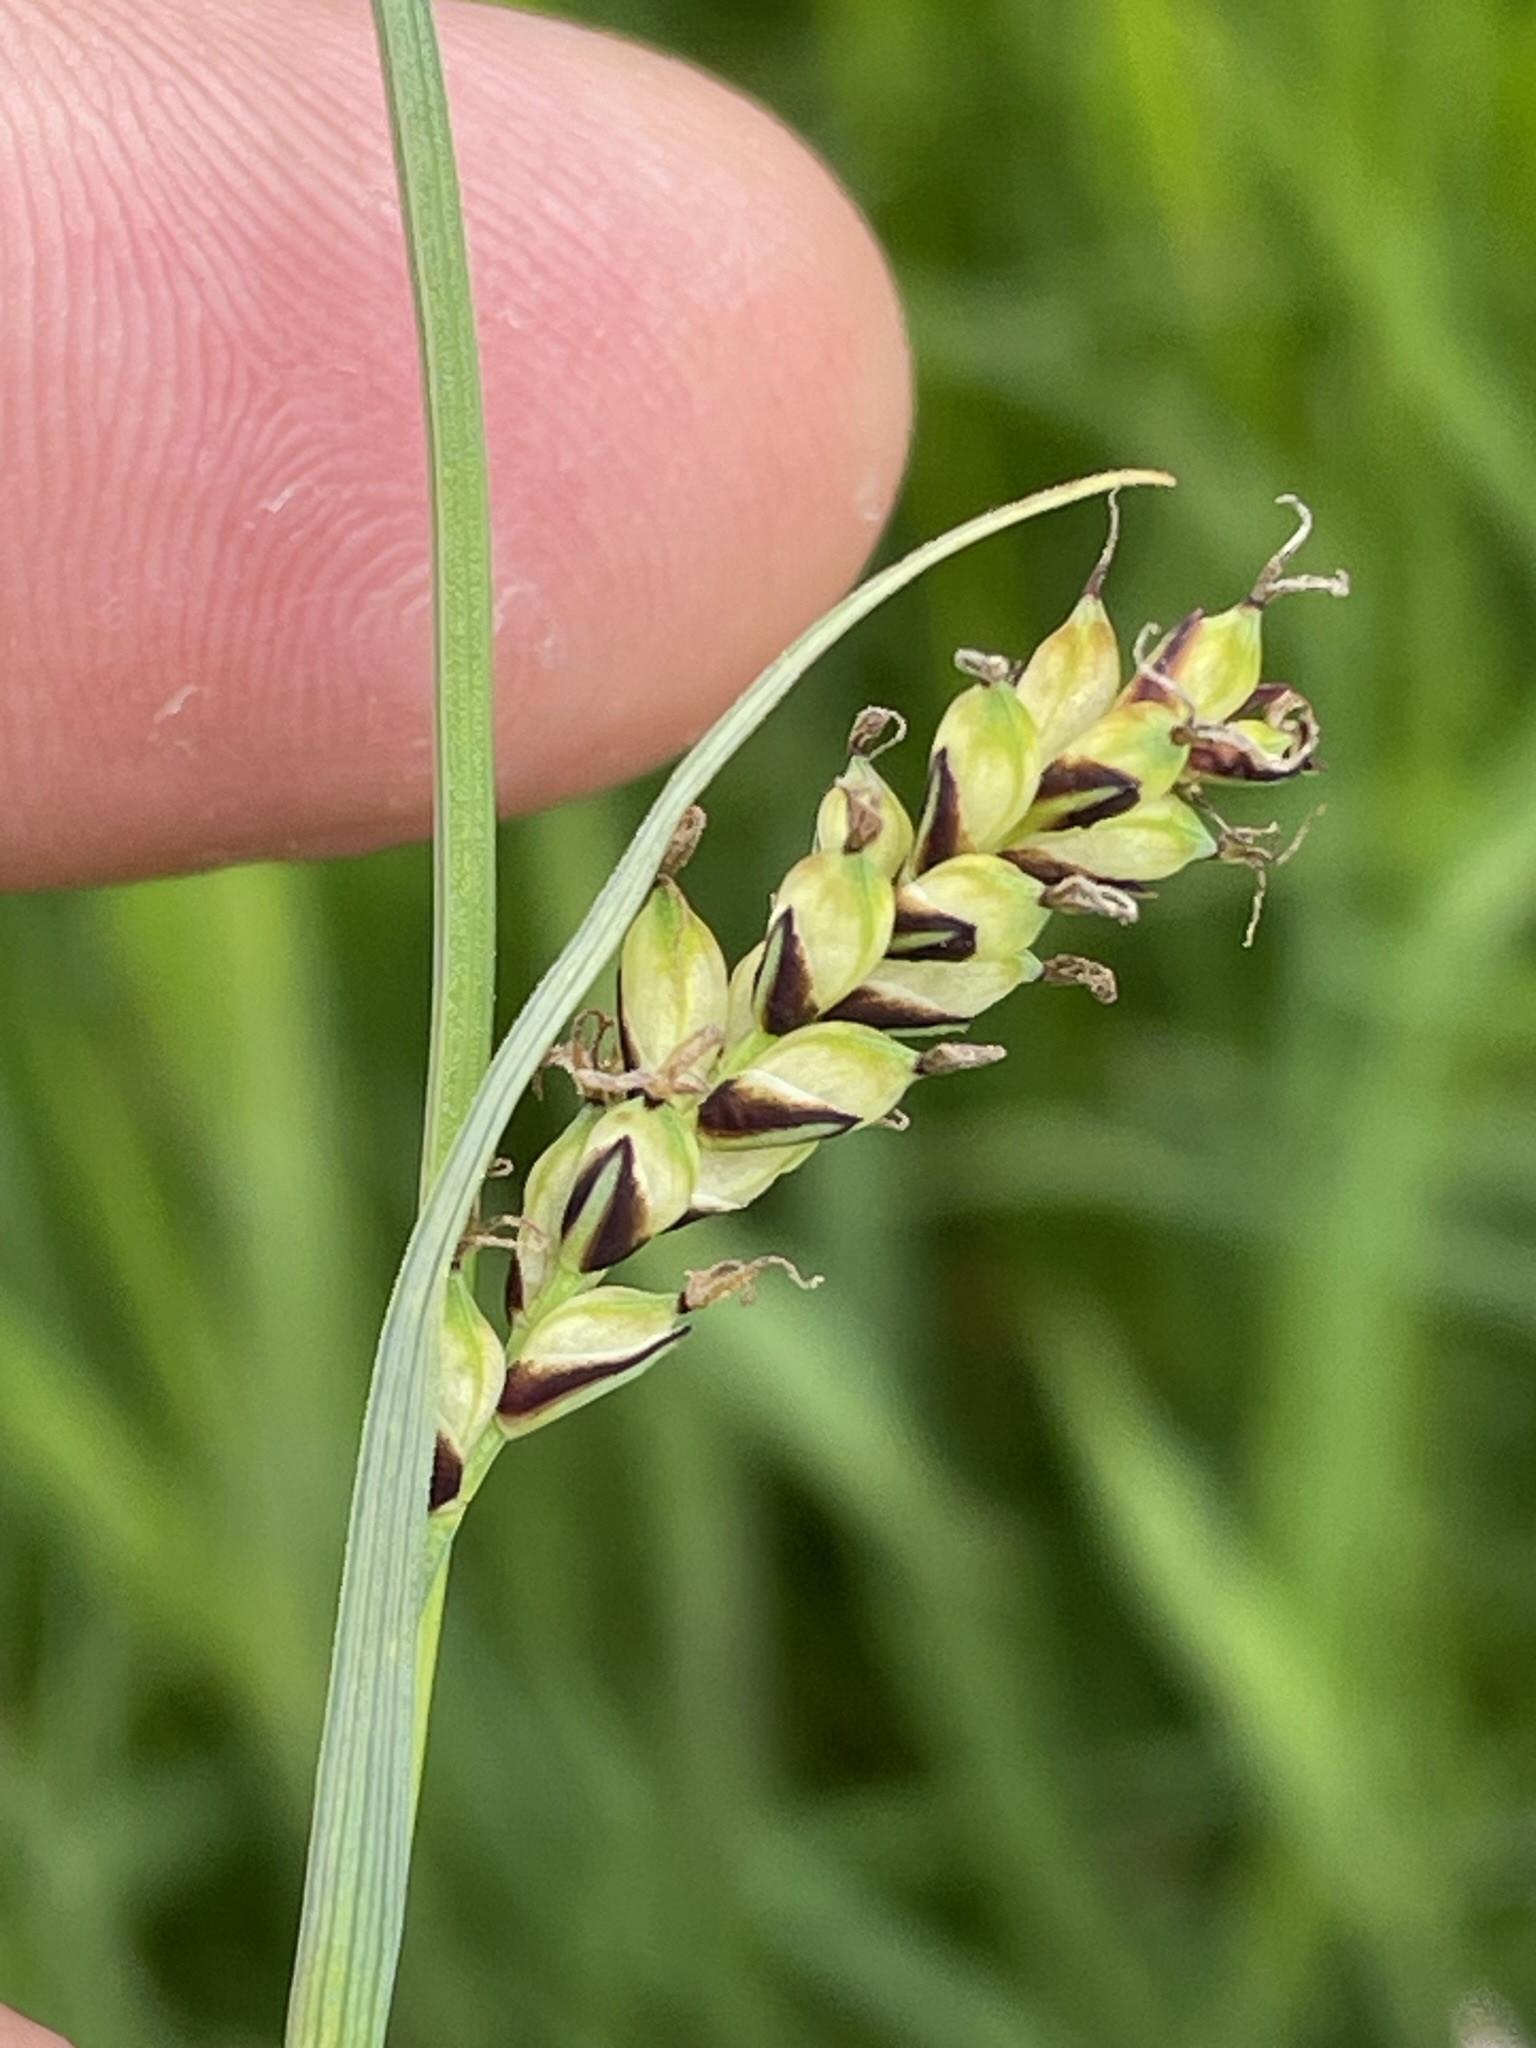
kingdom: Plantae
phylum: Tracheophyta
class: Liliopsida
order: Poales
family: Cyperaceae
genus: Carex
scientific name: Carex panicea
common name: Carnation sedge
